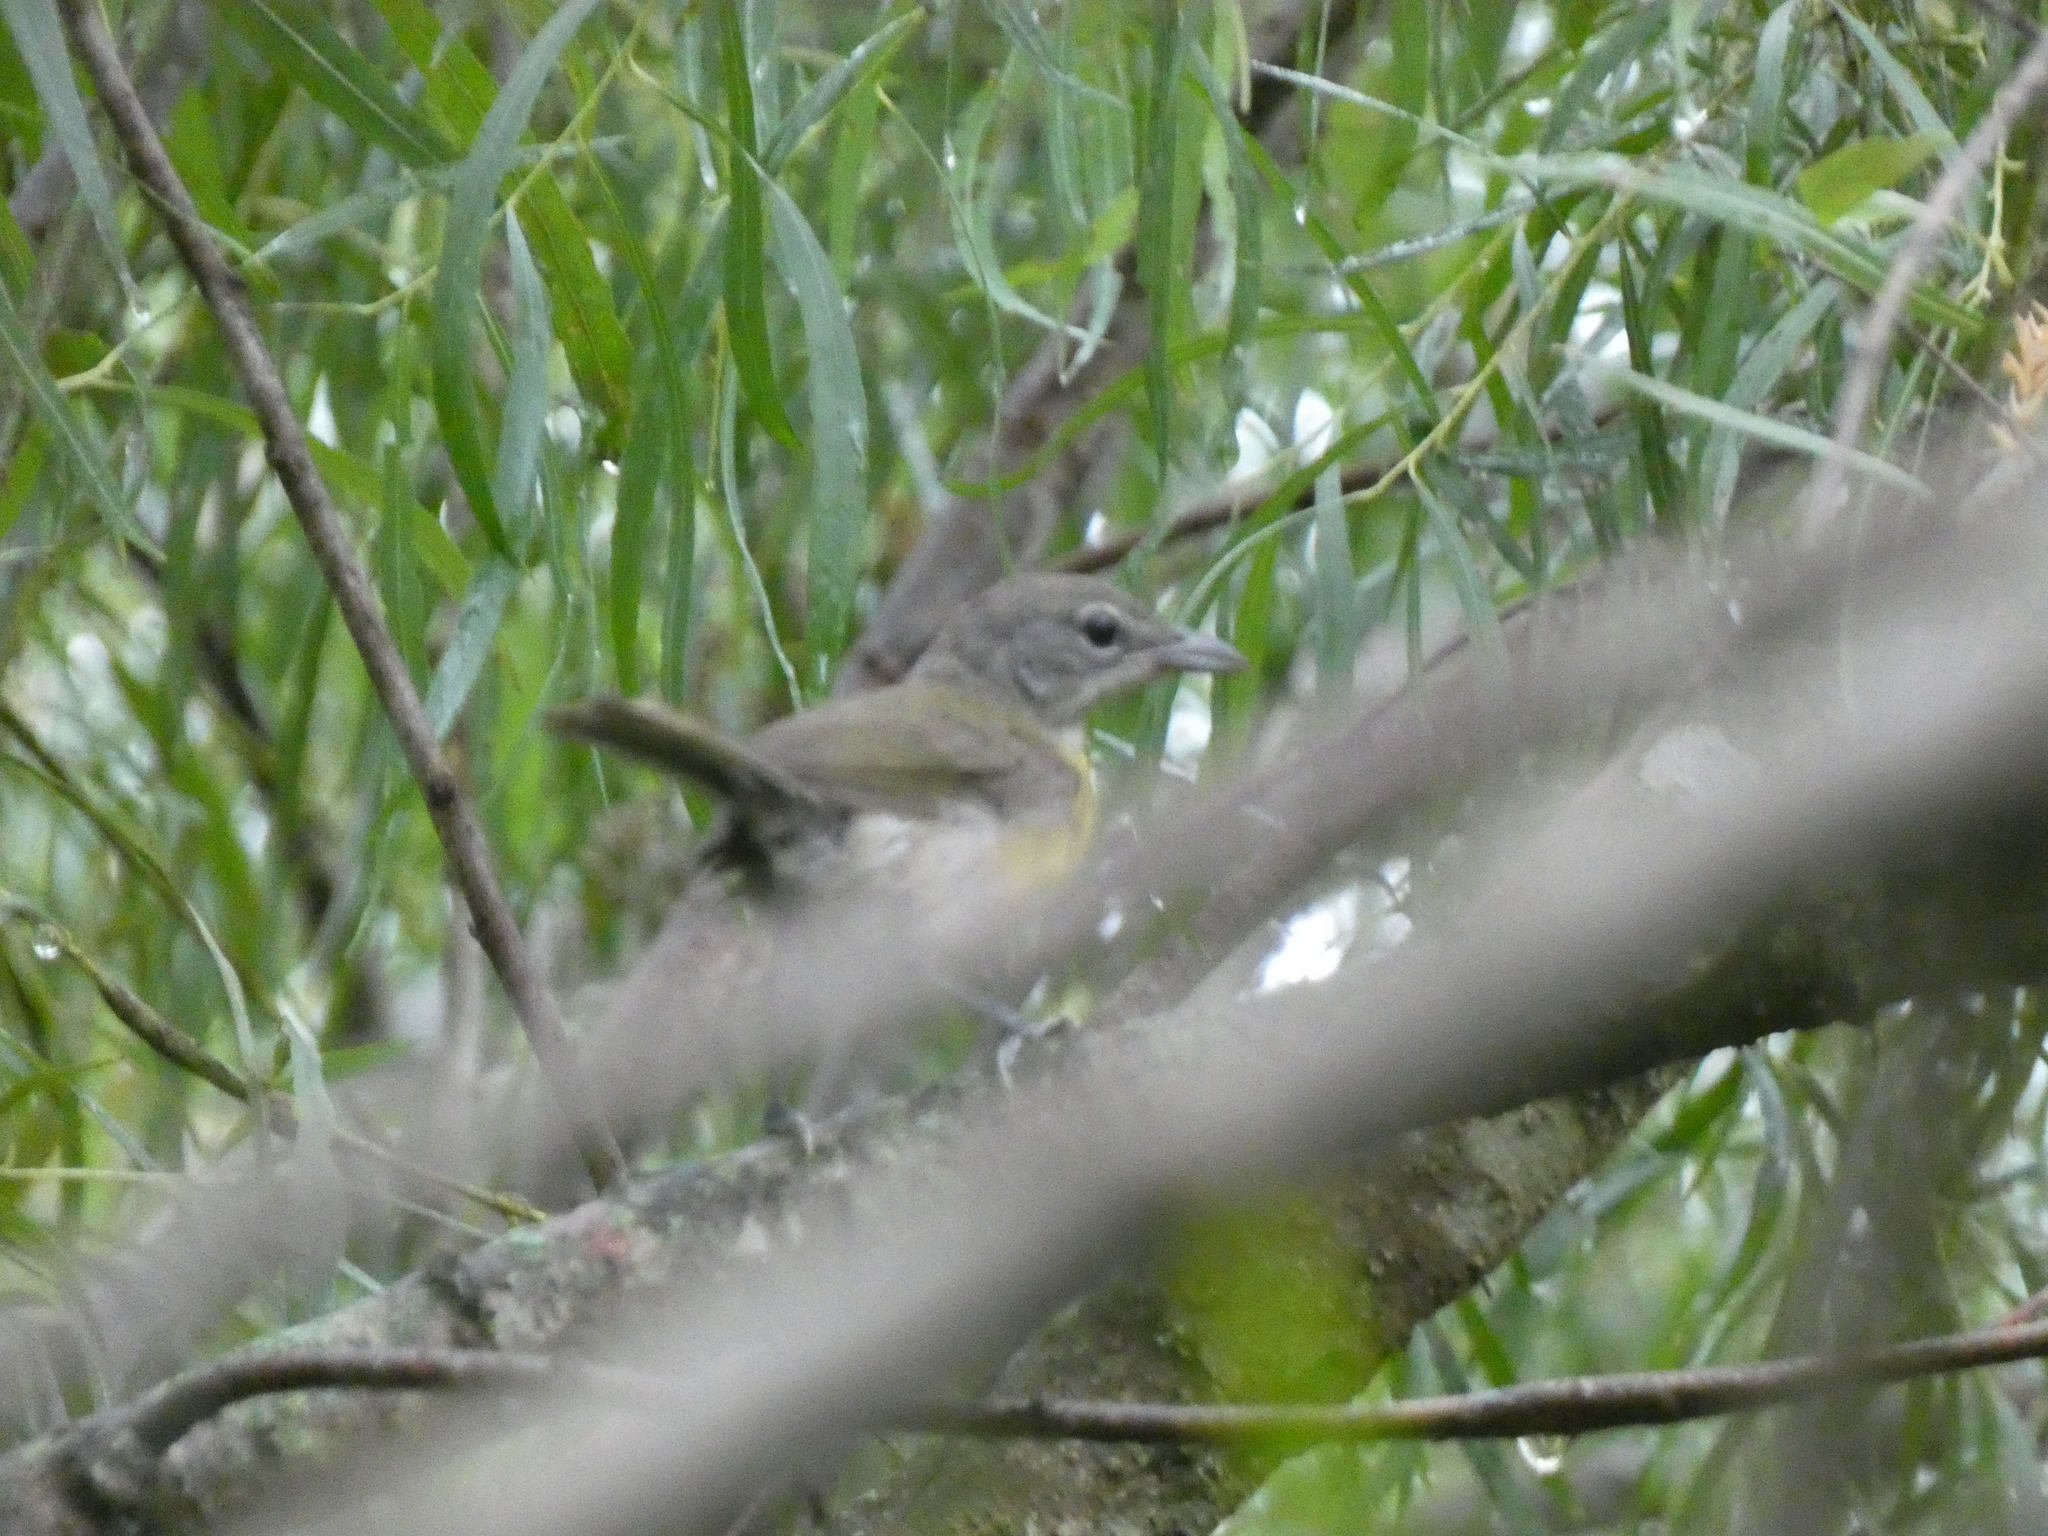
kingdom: Animalia
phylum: Chordata
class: Aves
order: Passeriformes
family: Parulidae
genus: Icteria
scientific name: Icteria virens
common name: Yellow-breasted chat
